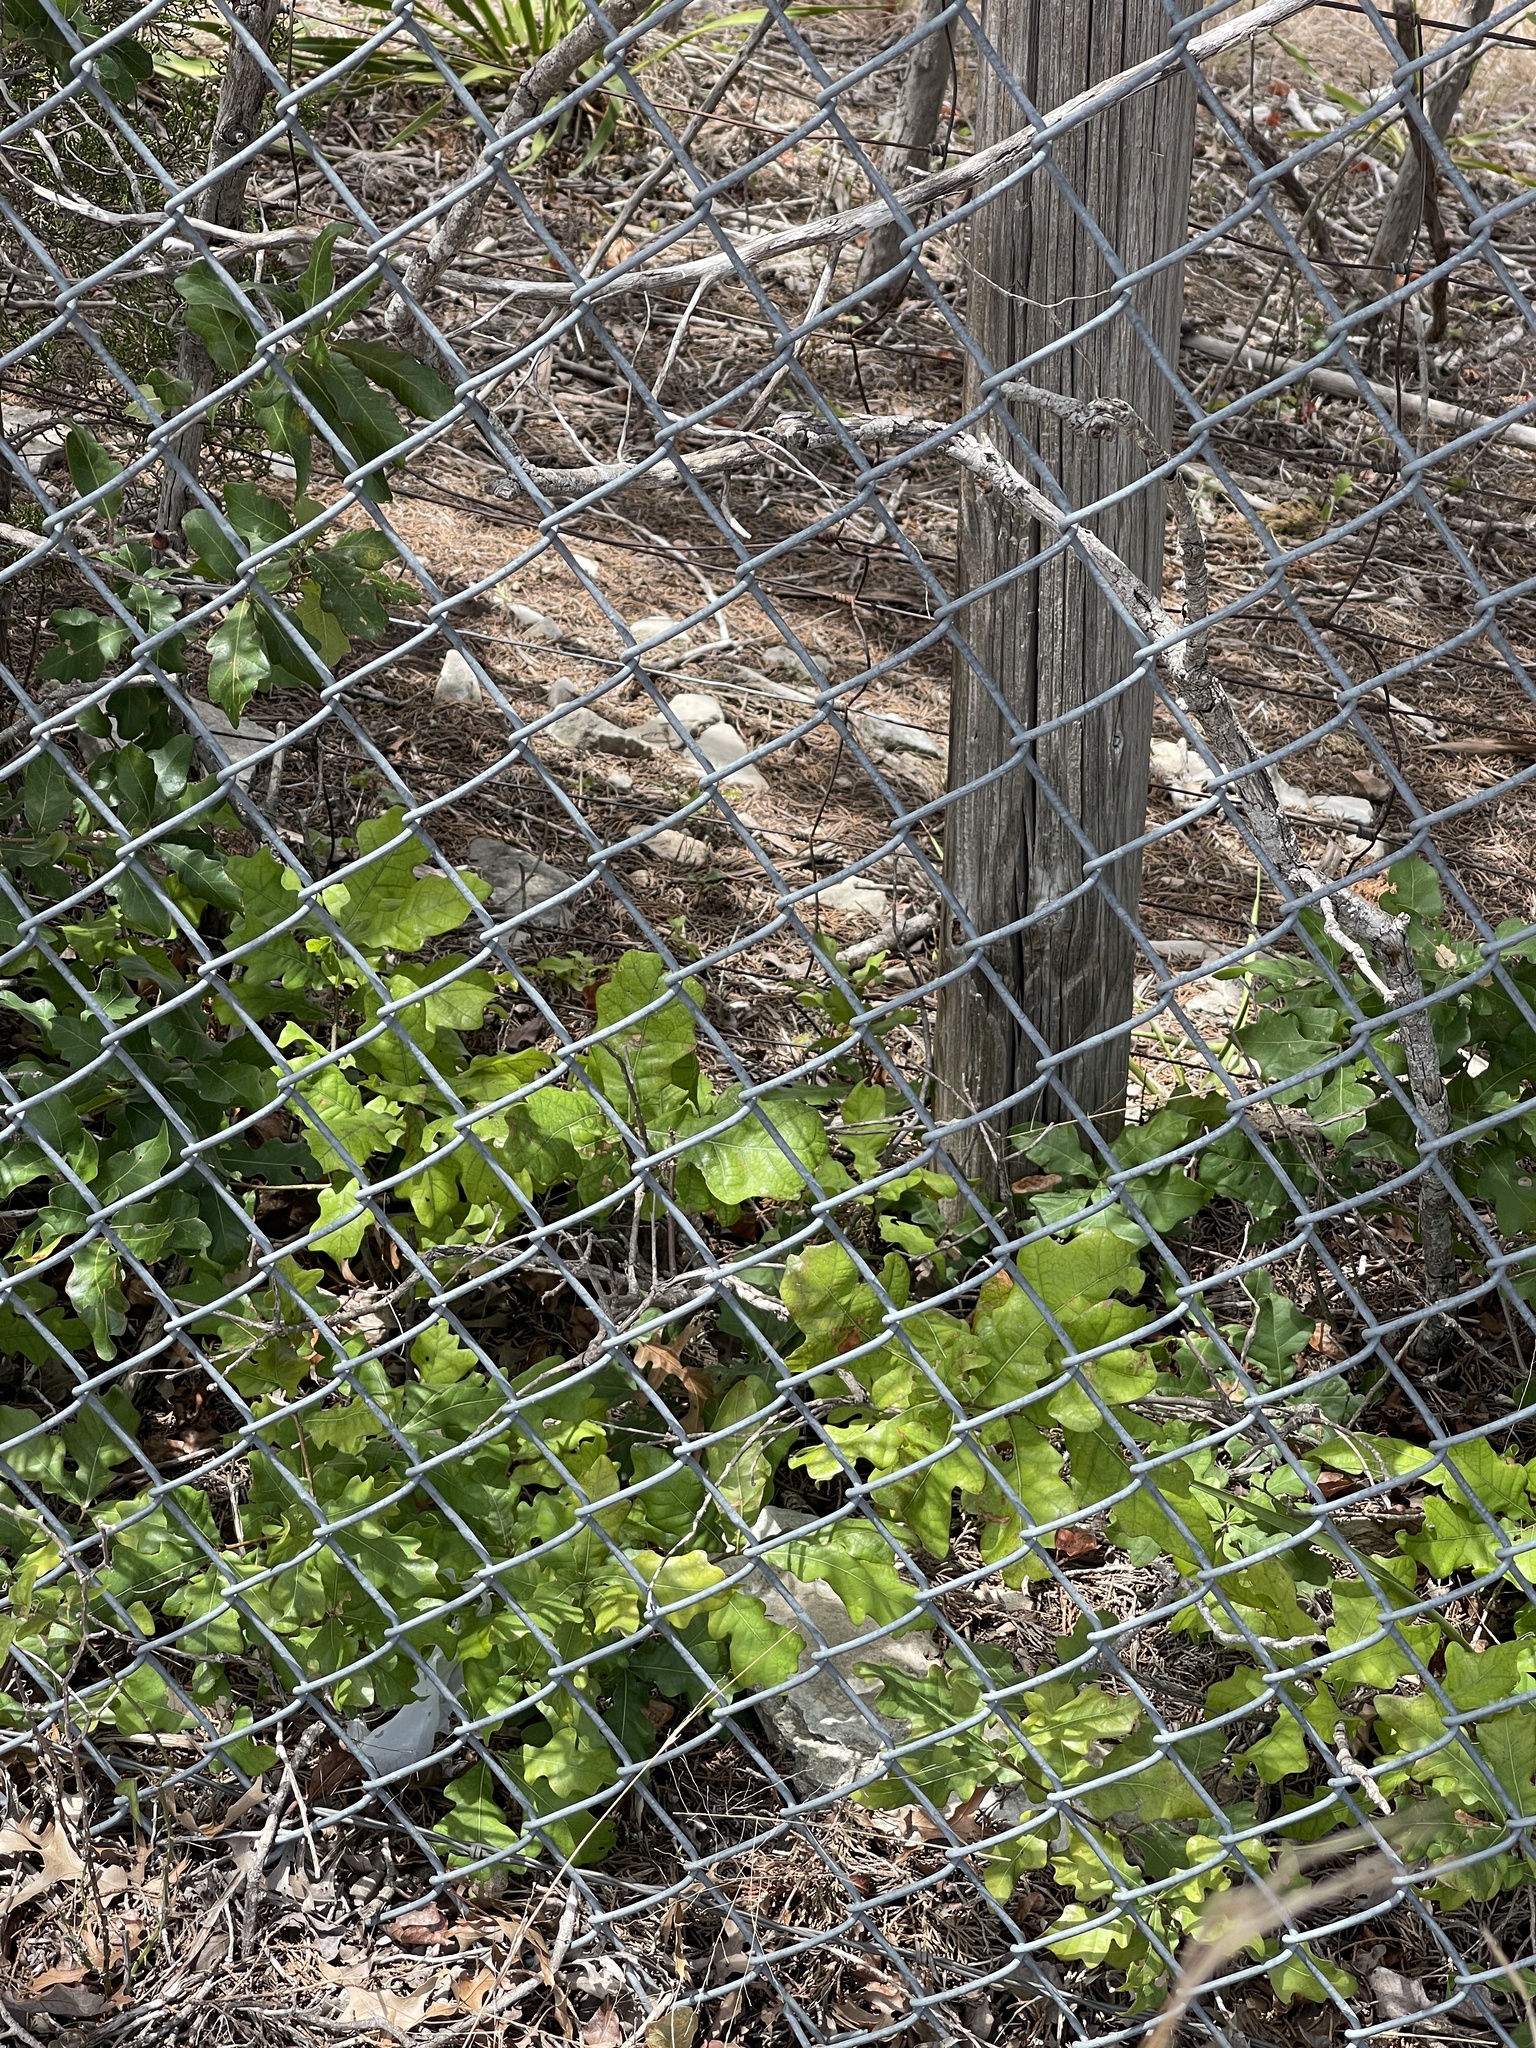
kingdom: Plantae
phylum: Tracheophyta
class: Magnoliopsida
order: Fagales
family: Fagaceae
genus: Quercus
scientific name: Quercus sinuata
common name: Durand oak
